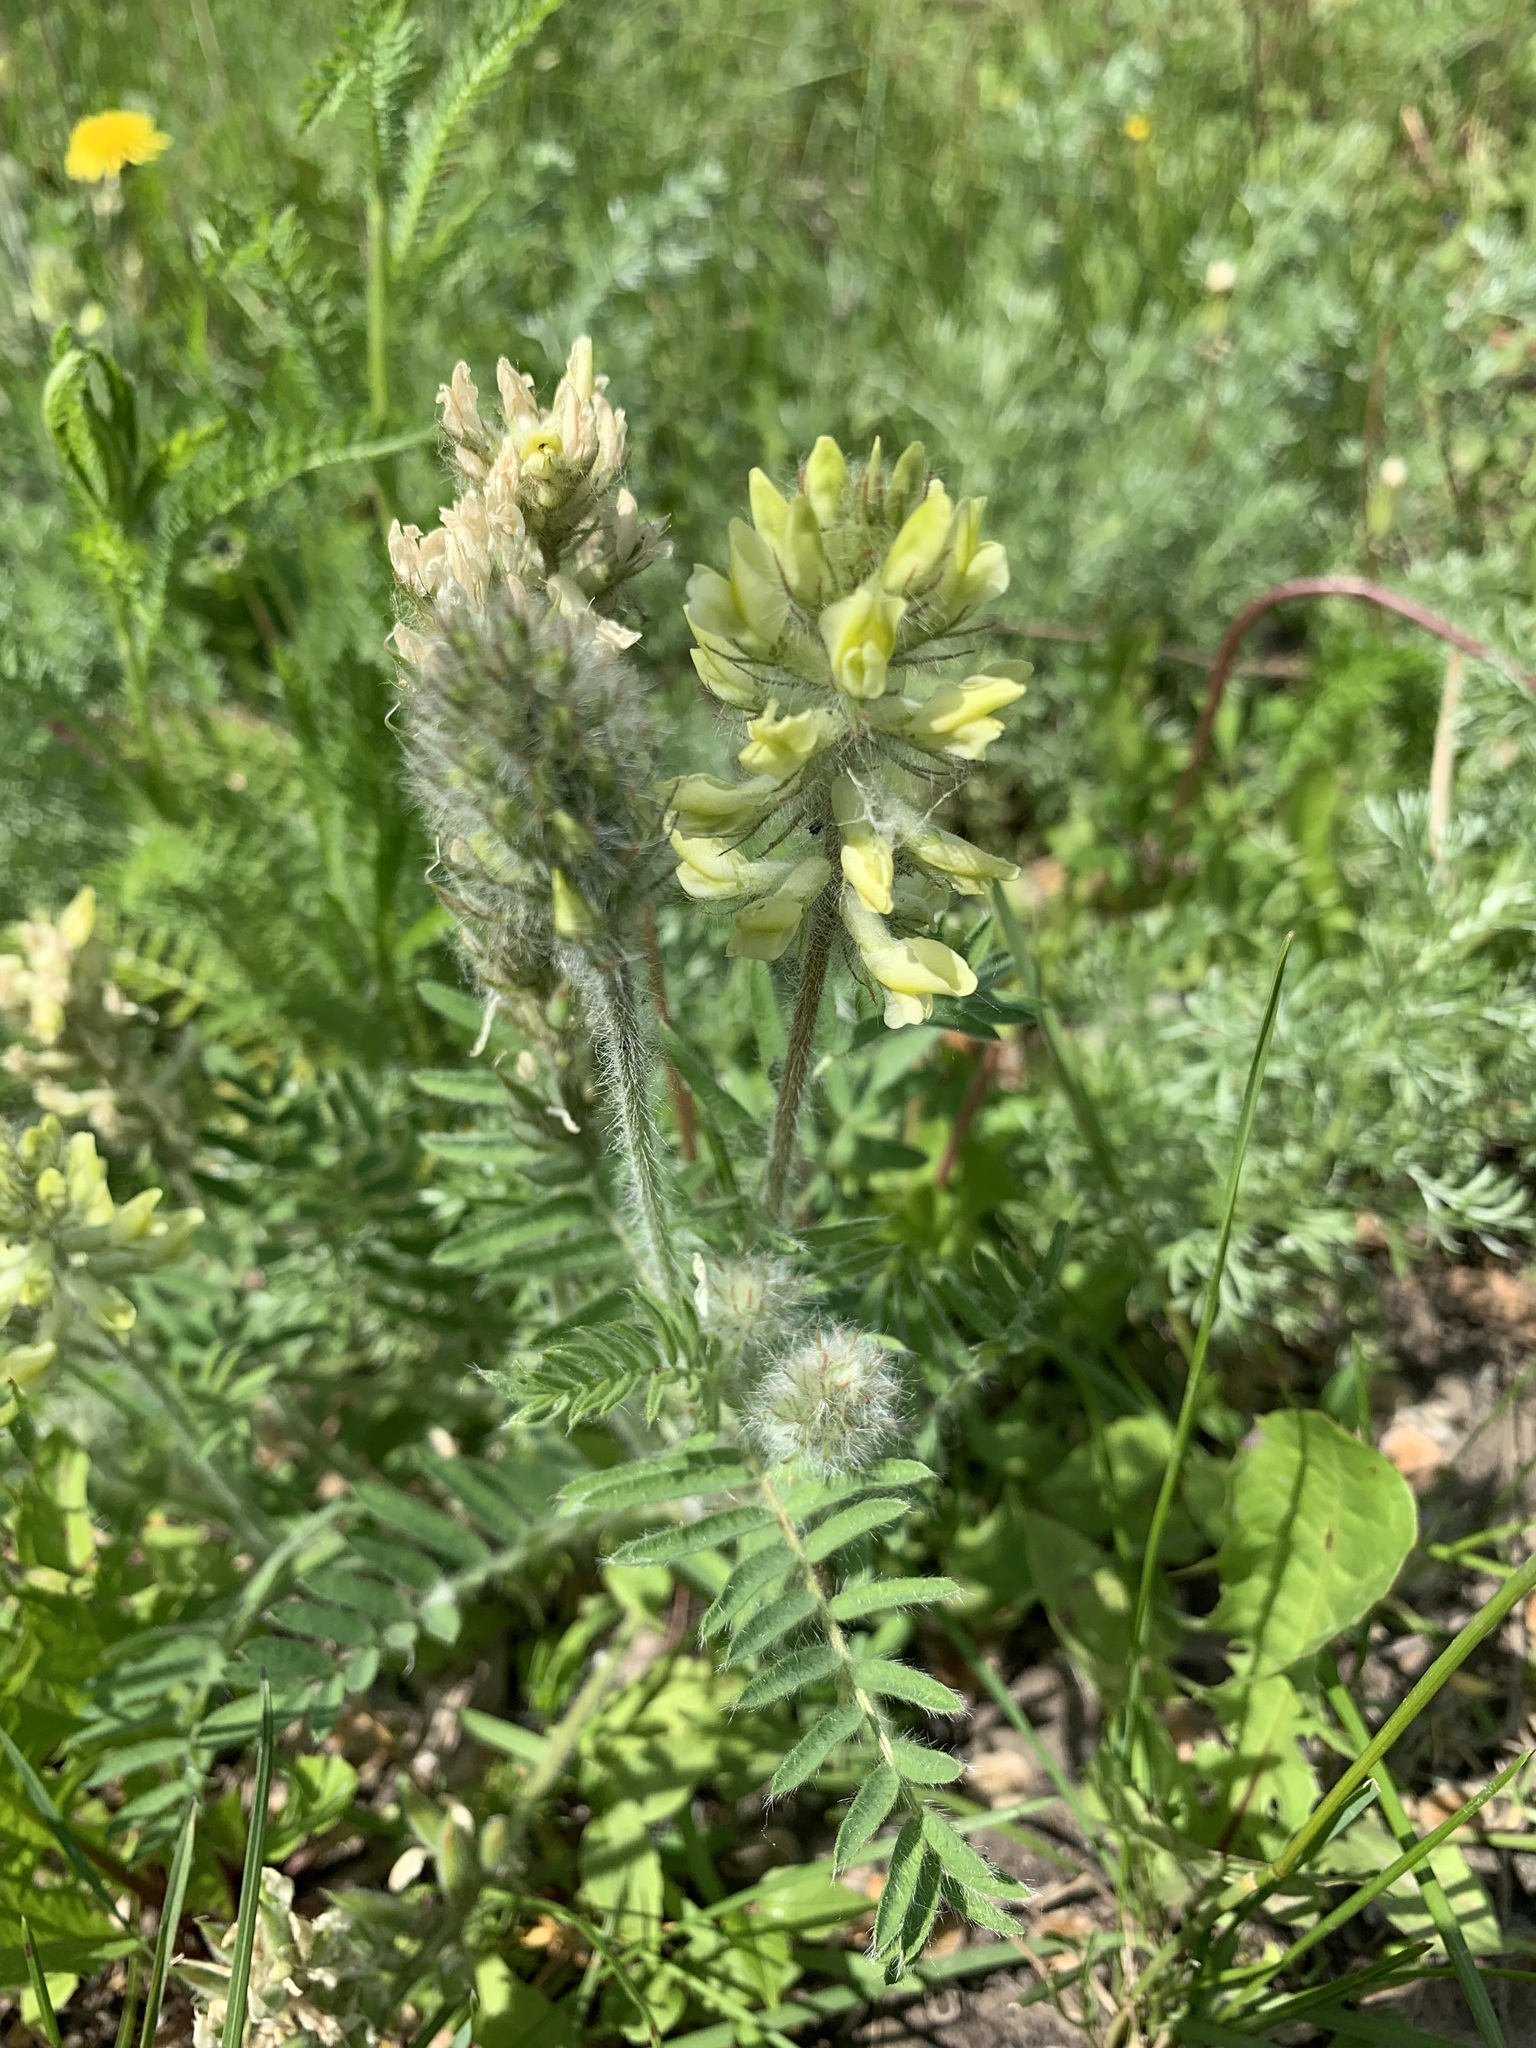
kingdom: Plantae
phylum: Tracheophyta
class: Magnoliopsida
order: Fabales
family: Fabaceae
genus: Oxytropis
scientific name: Oxytropis pilosa
